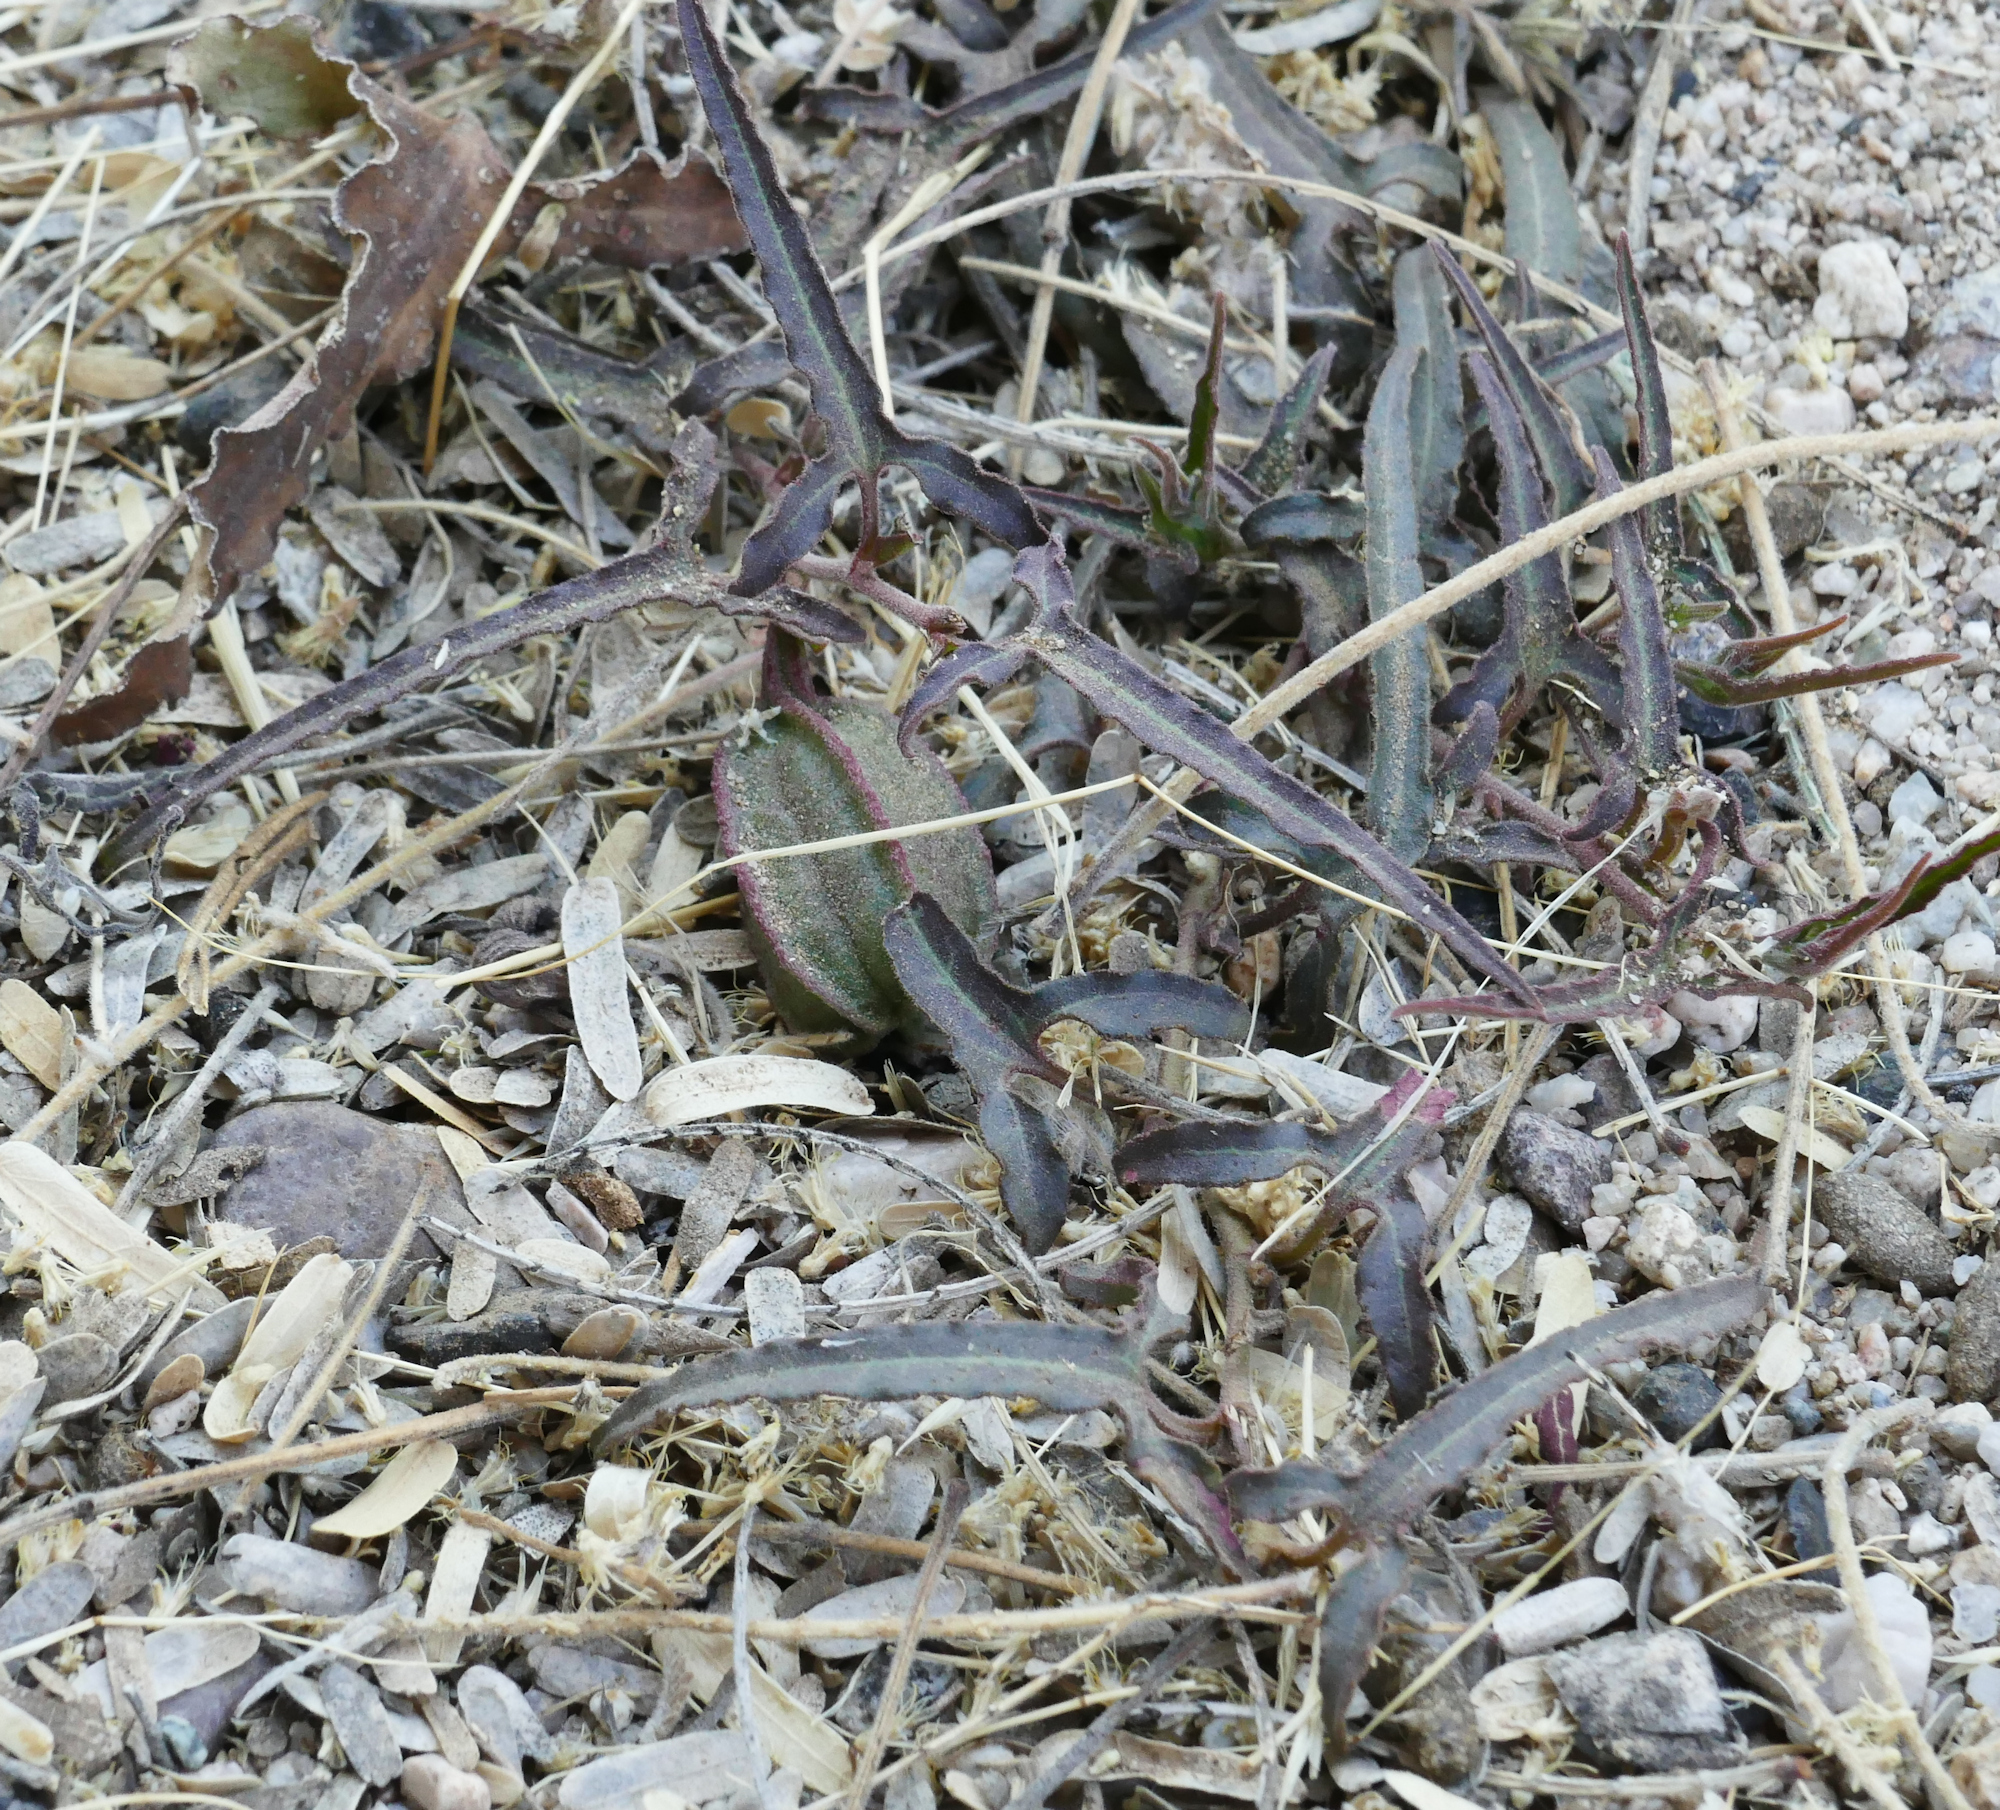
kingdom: Plantae
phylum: Tracheophyta
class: Magnoliopsida
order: Piperales
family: Aristolochiaceae
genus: Aristolochia
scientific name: Aristolochia watsonii
